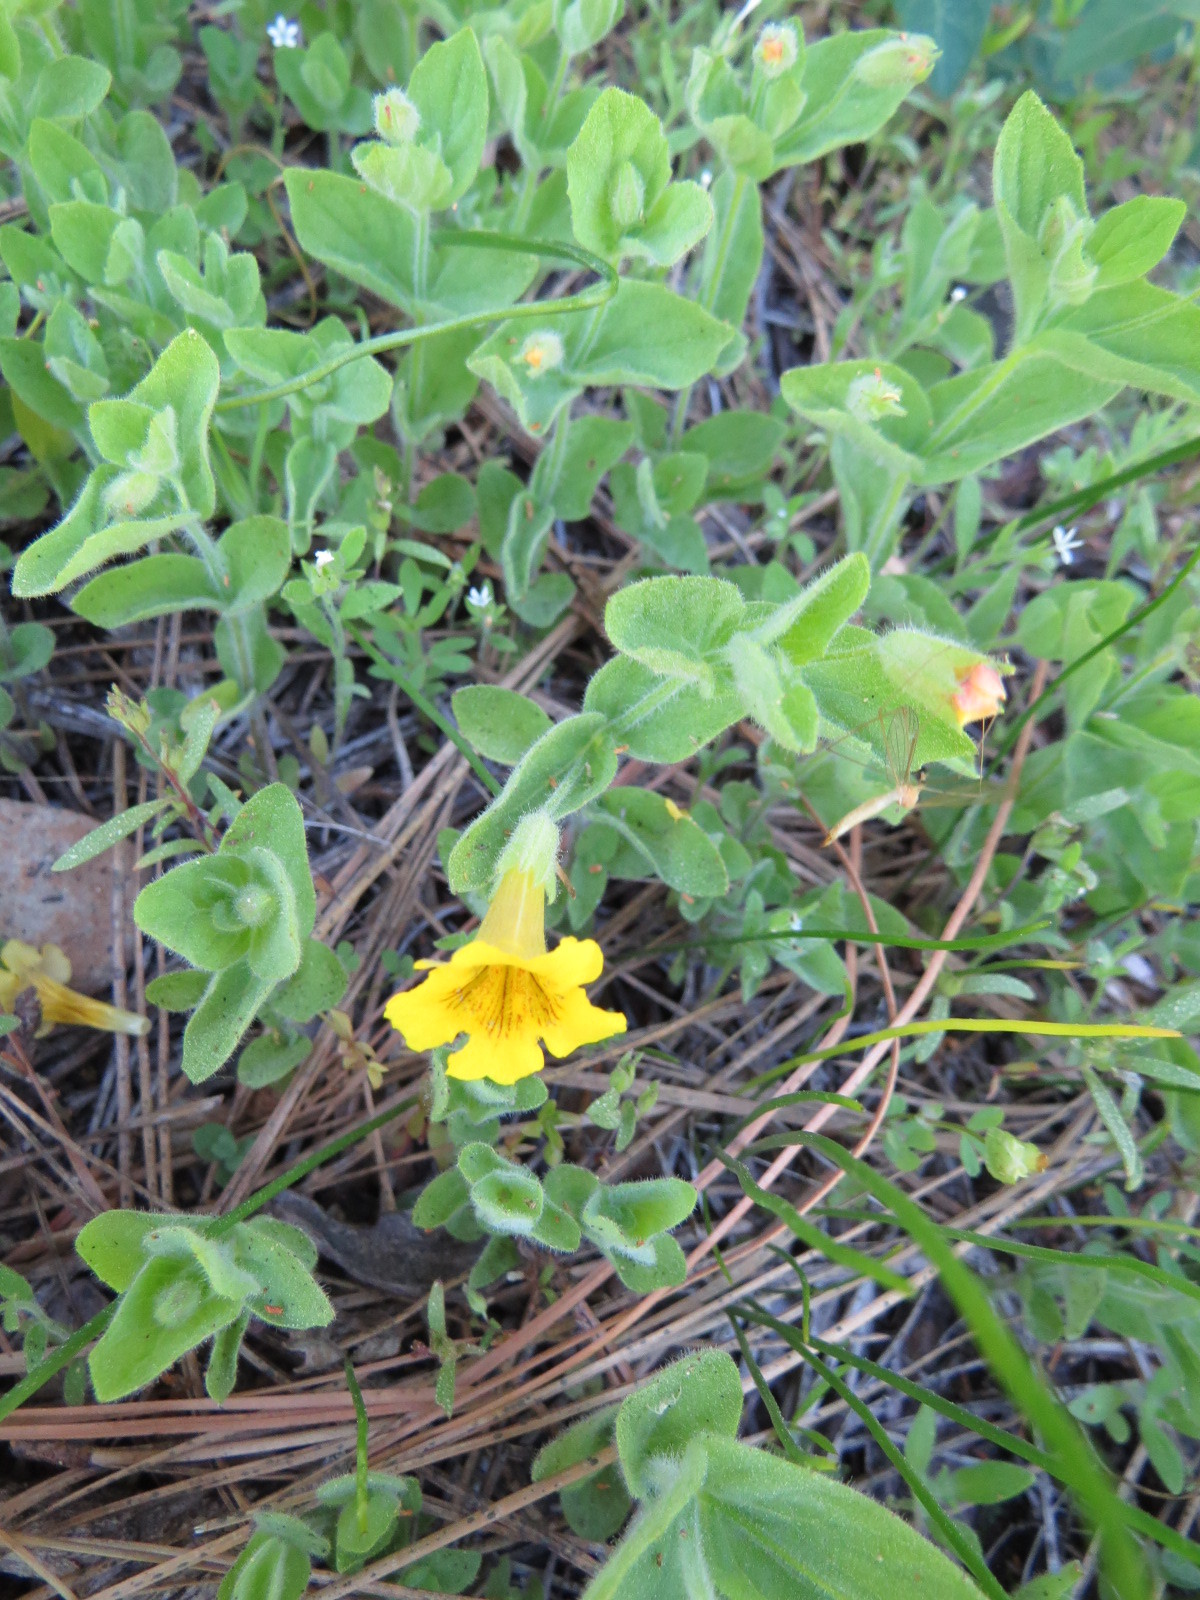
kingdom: Plantae
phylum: Tracheophyta
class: Magnoliopsida
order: Lamiales
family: Phrymaceae
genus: Erythranthe
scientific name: Erythranthe moschata
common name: Muskflower
